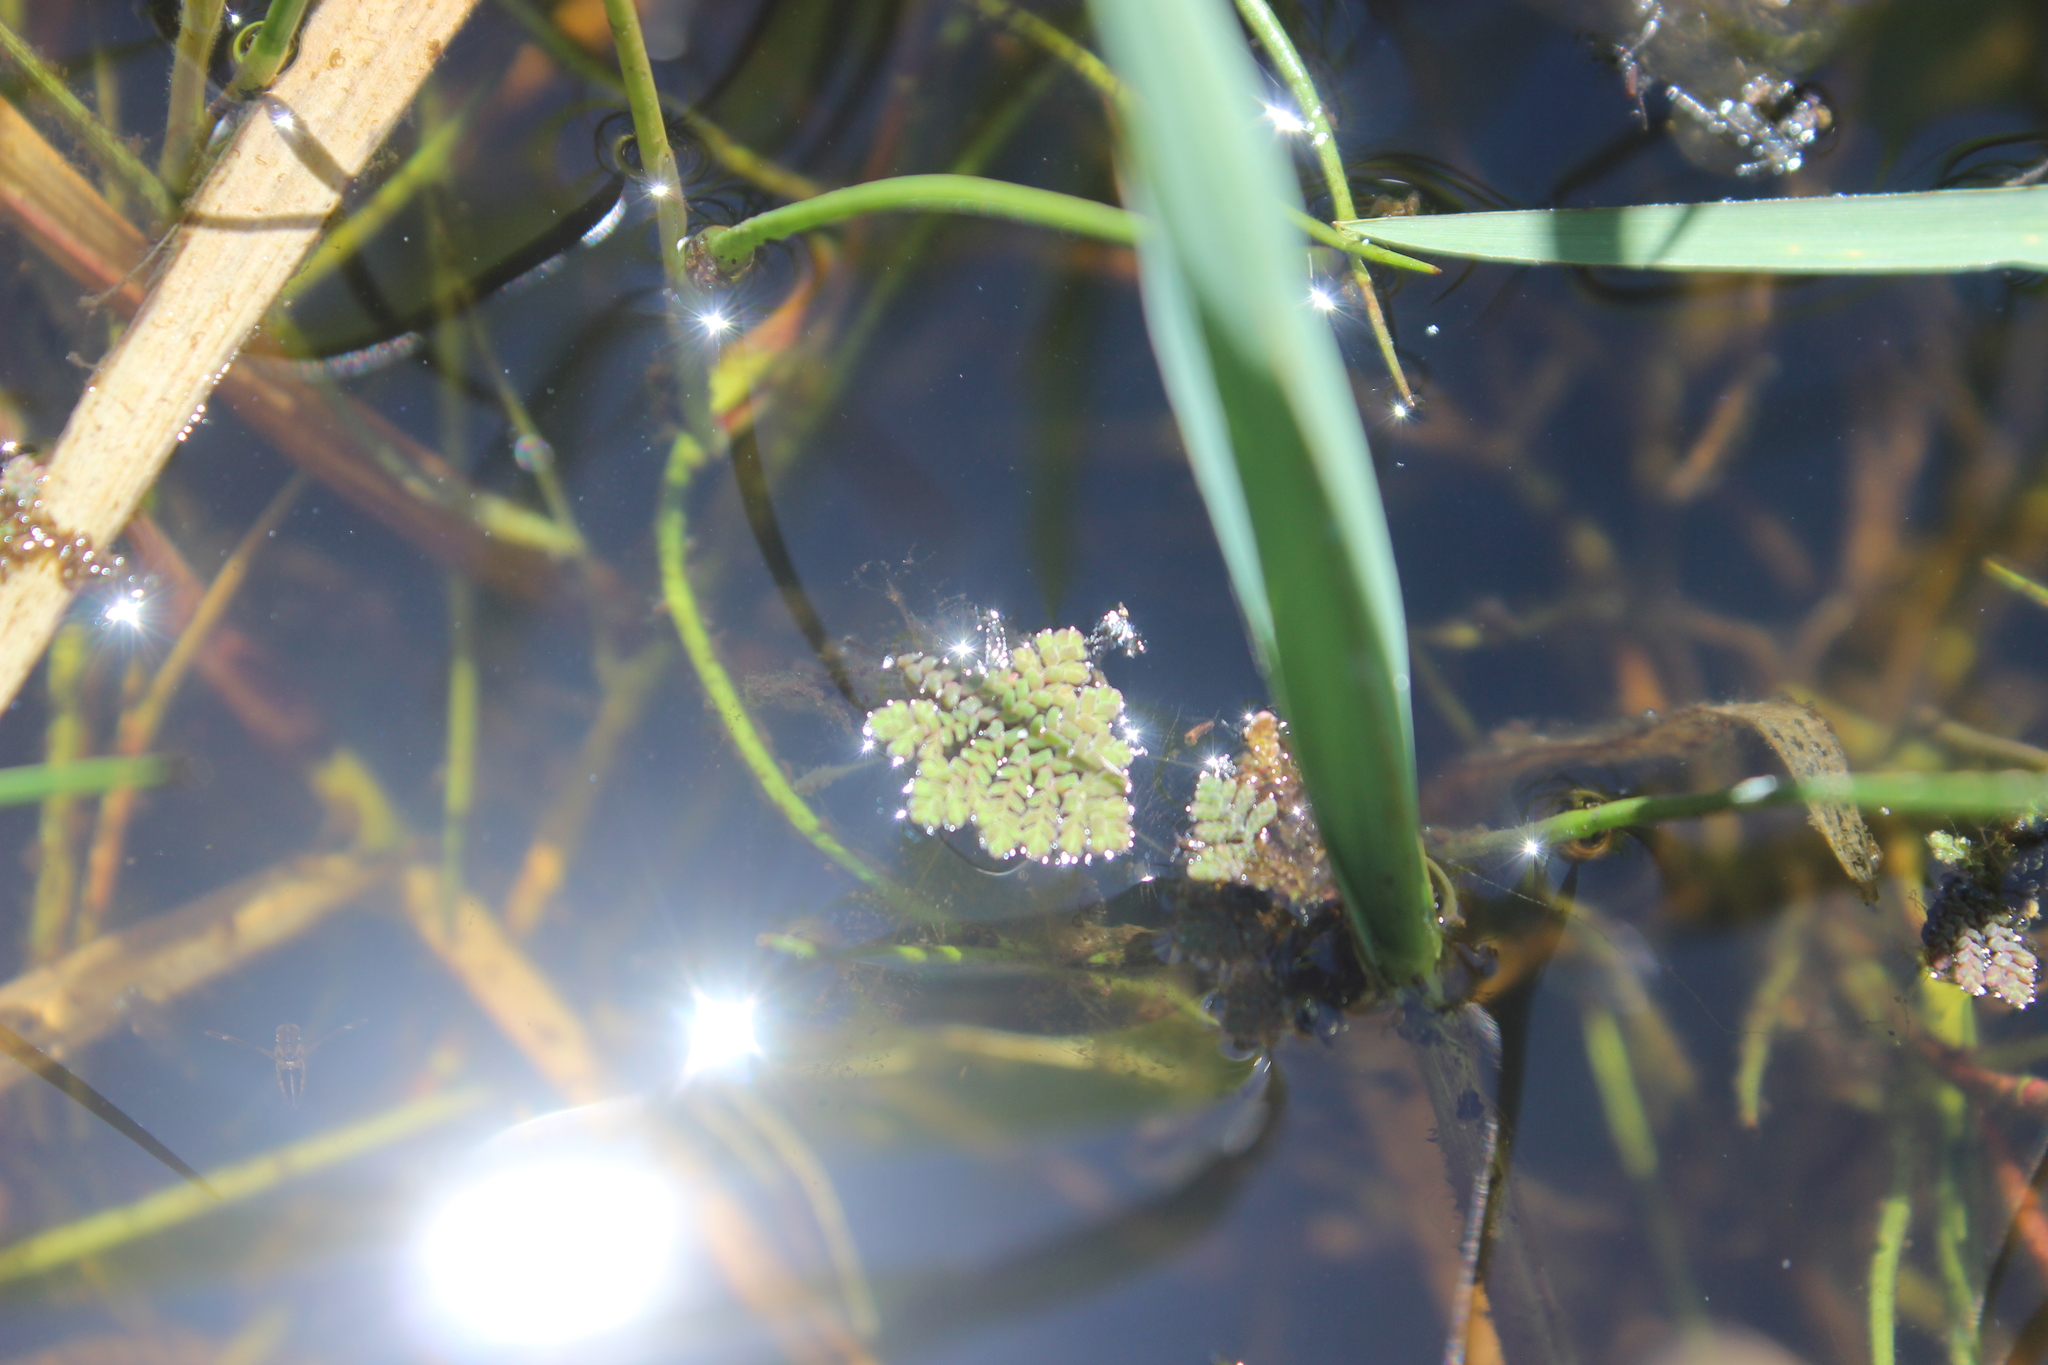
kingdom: Plantae
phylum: Tracheophyta
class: Polypodiopsida
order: Salviniales
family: Salviniaceae
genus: Azolla
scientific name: Azolla pinnata
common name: Ferny azolla
